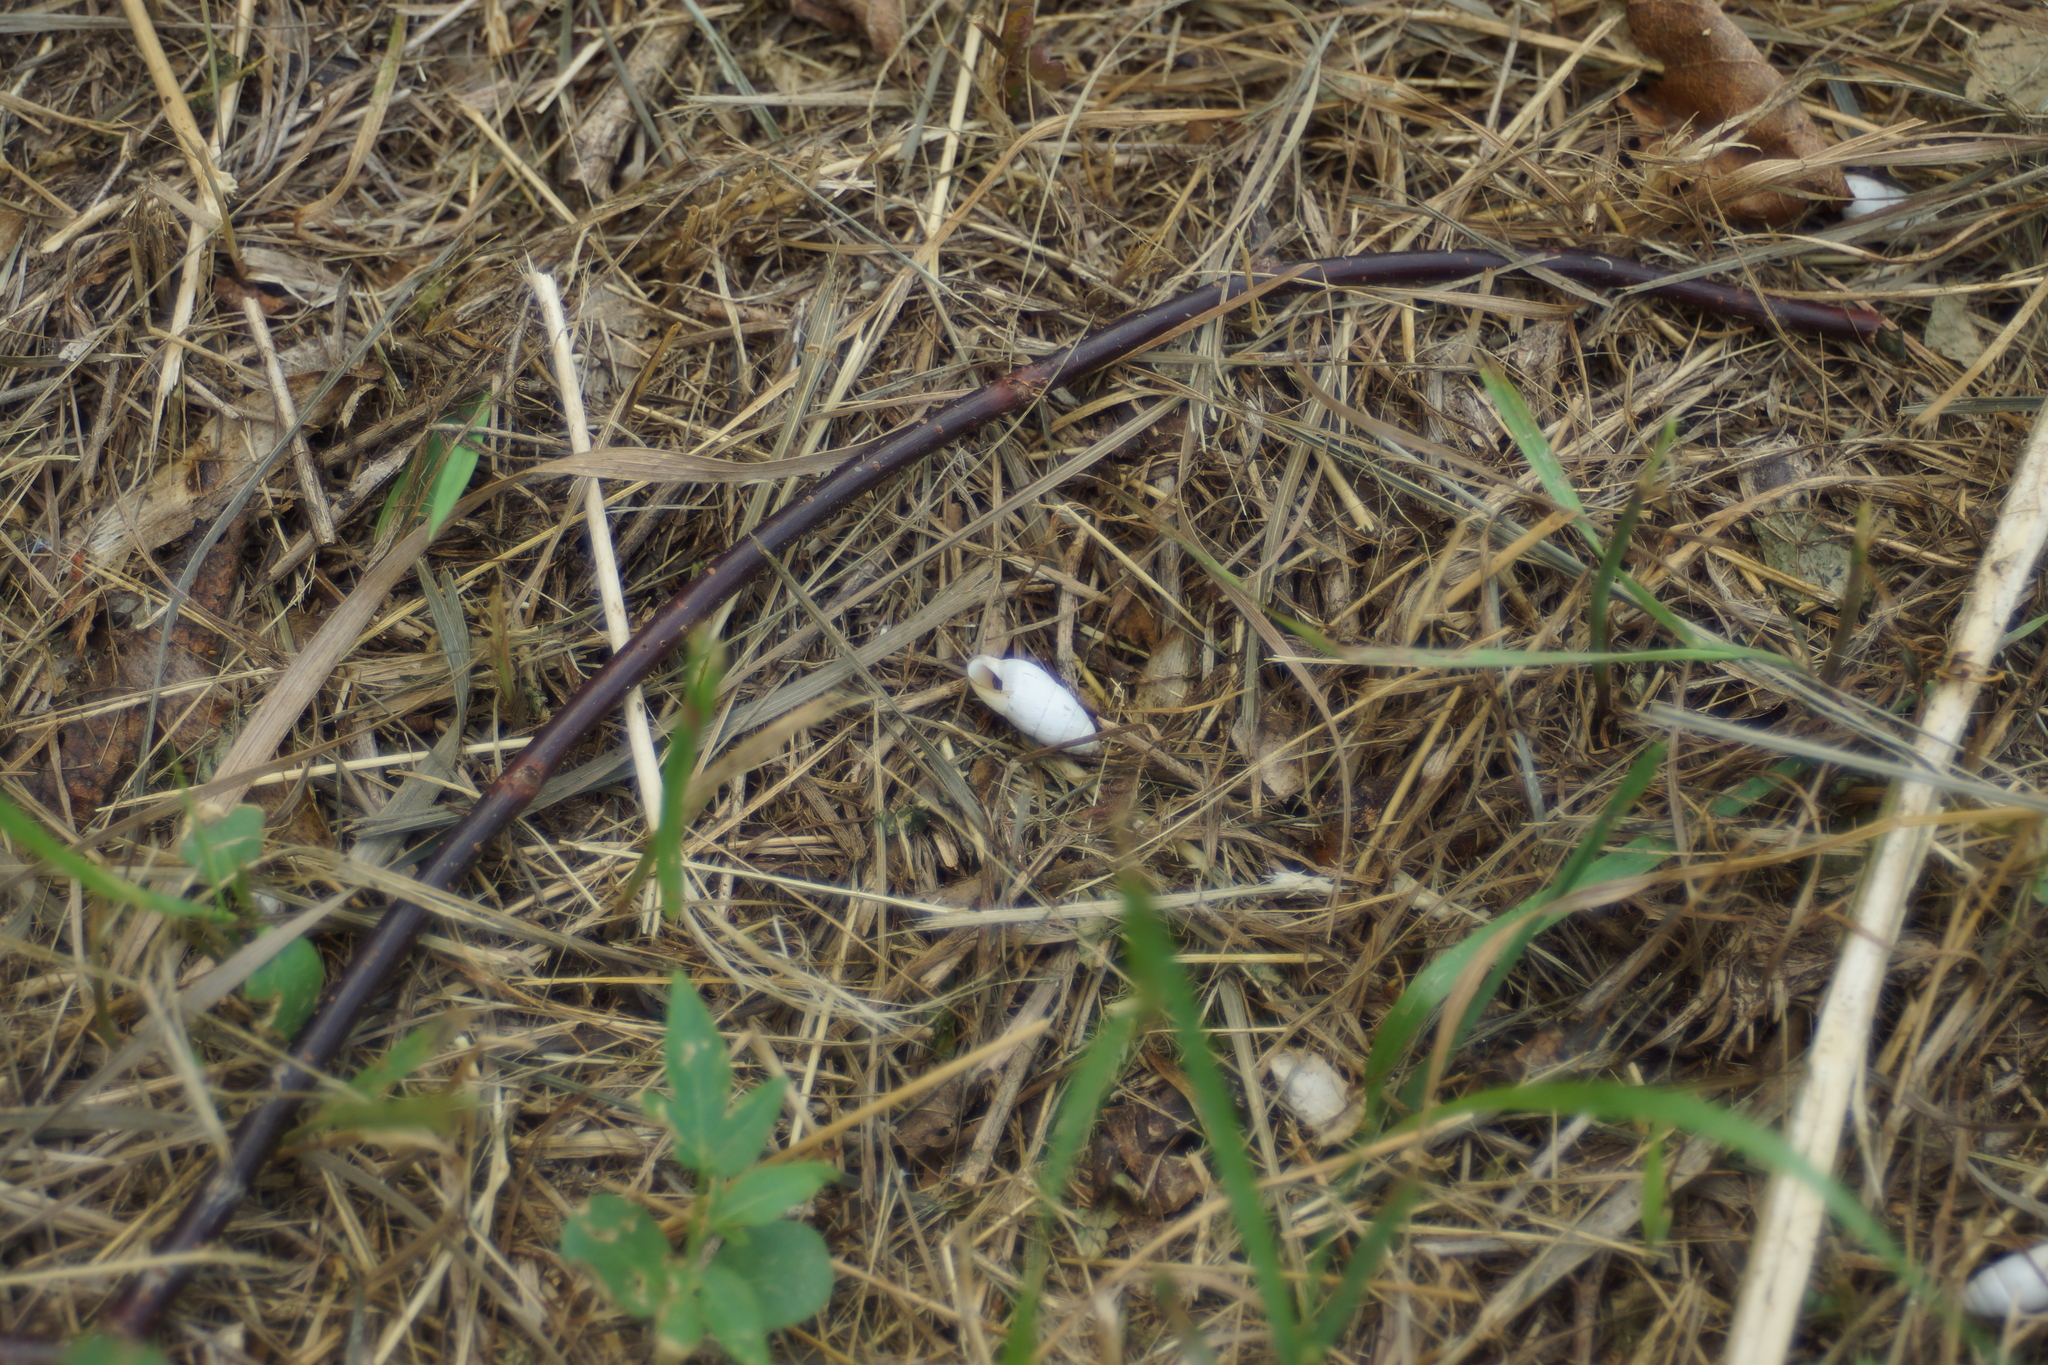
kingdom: Animalia
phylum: Mollusca
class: Gastropoda
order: Stylommatophora
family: Enidae
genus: Brephulopsis
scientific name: Brephulopsis cylindrica
